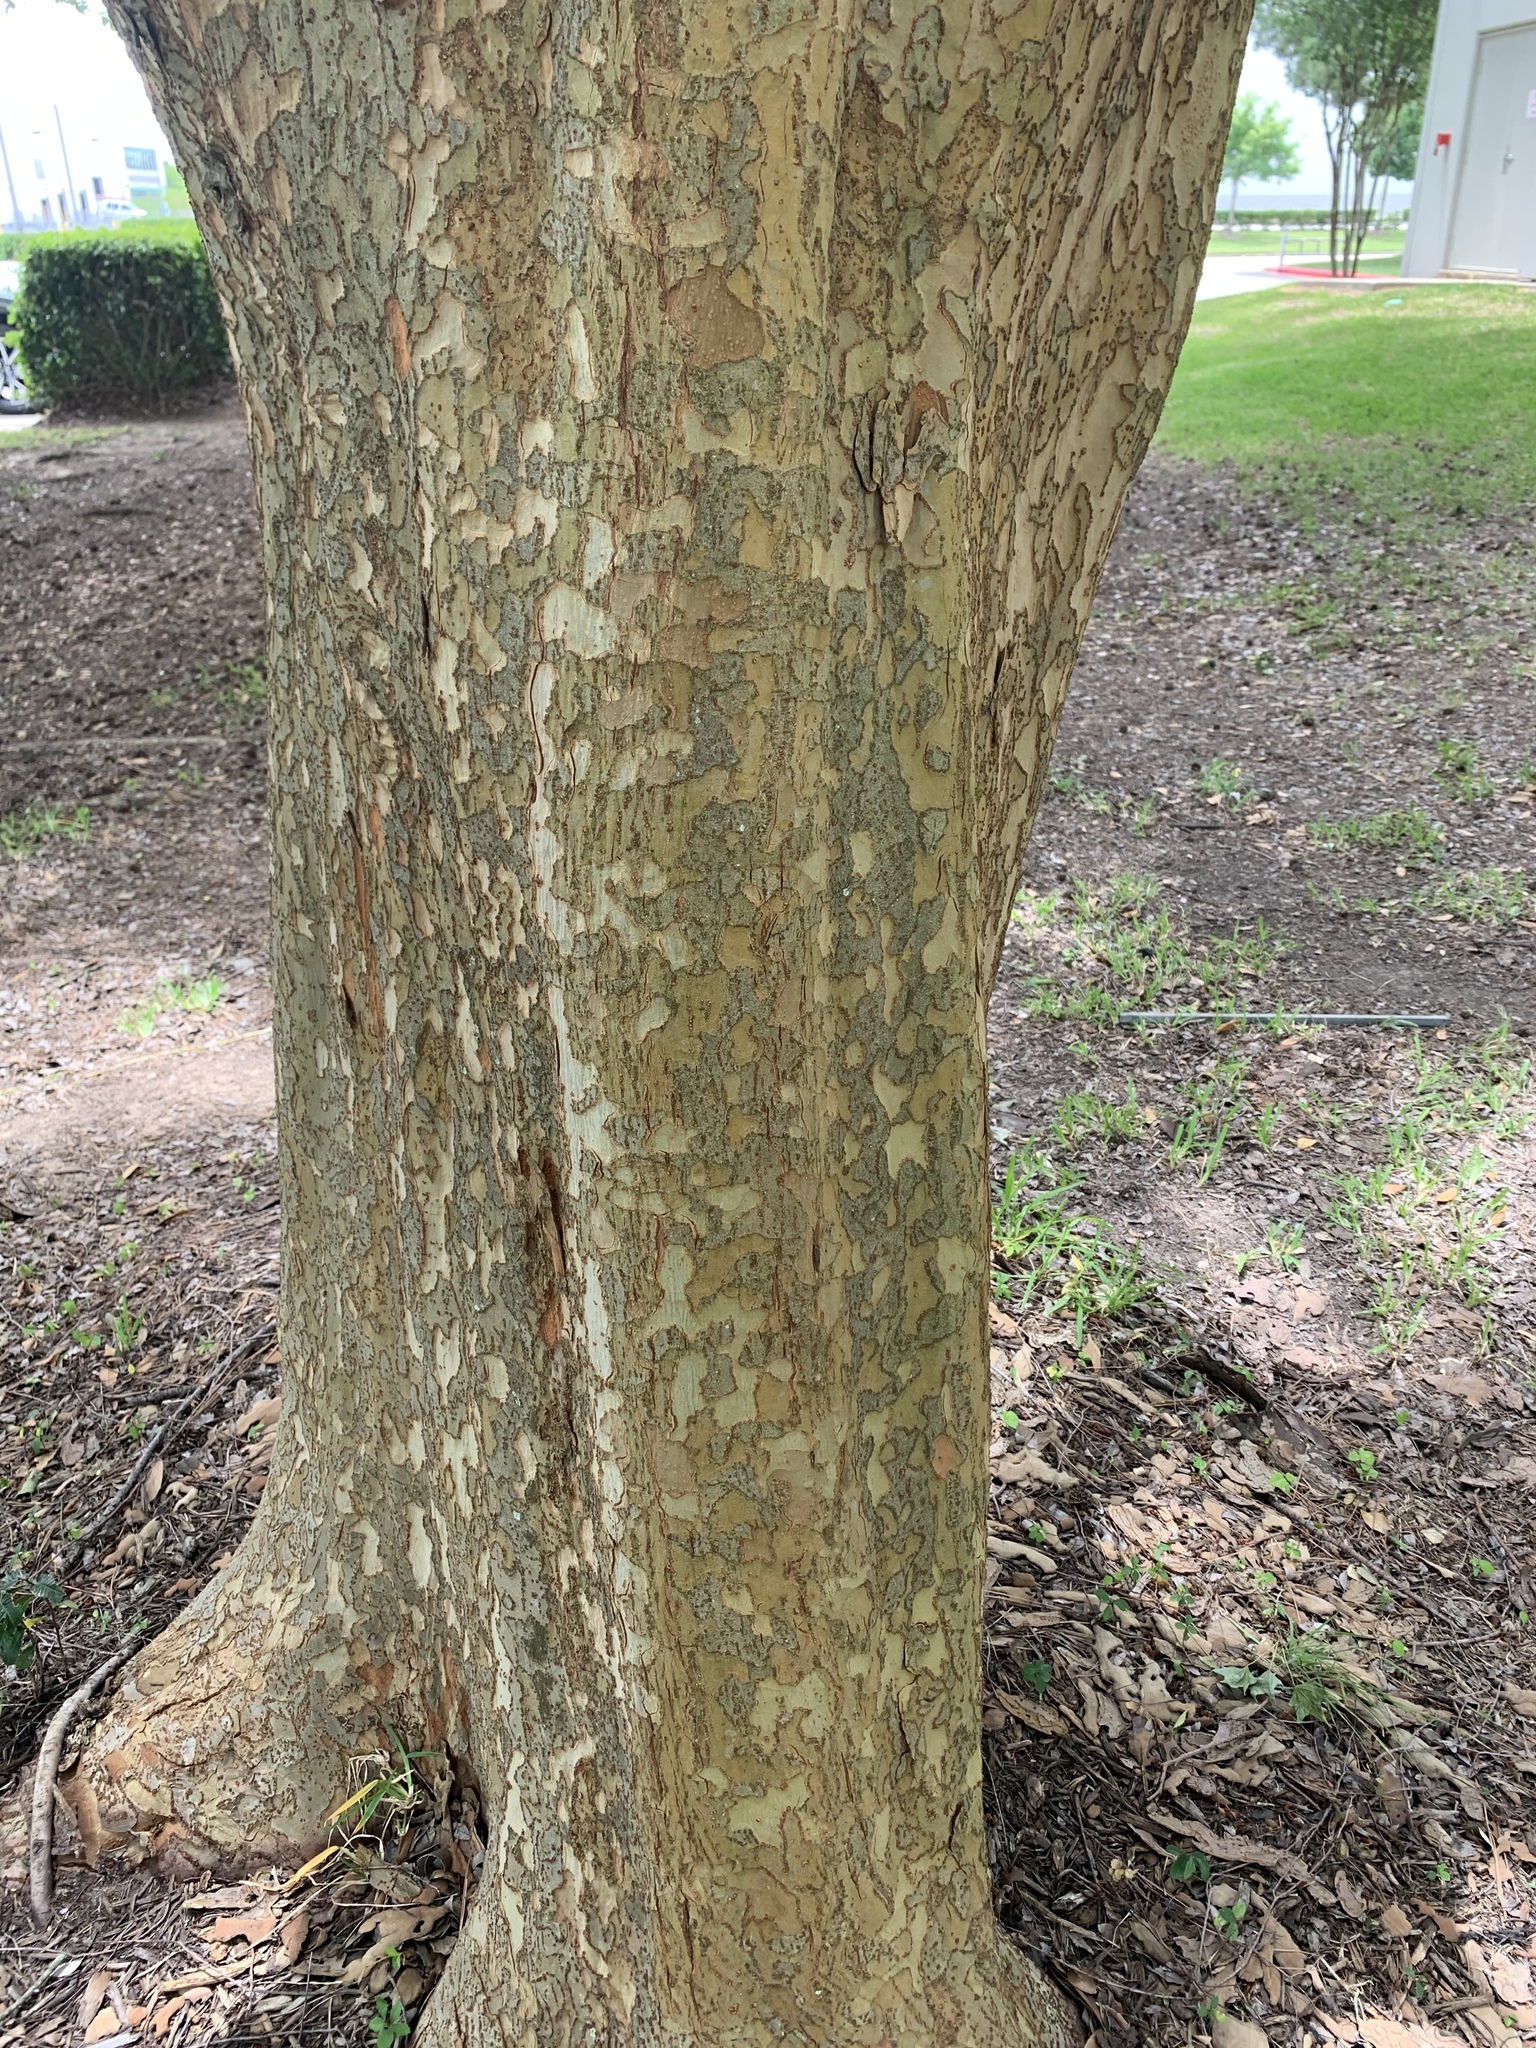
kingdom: Plantae
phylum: Tracheophyta
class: Magnoliopsida
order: Rosales
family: Ulmaceae
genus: Ulmus
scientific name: Ulmus parvifolia
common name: Chinese elm
